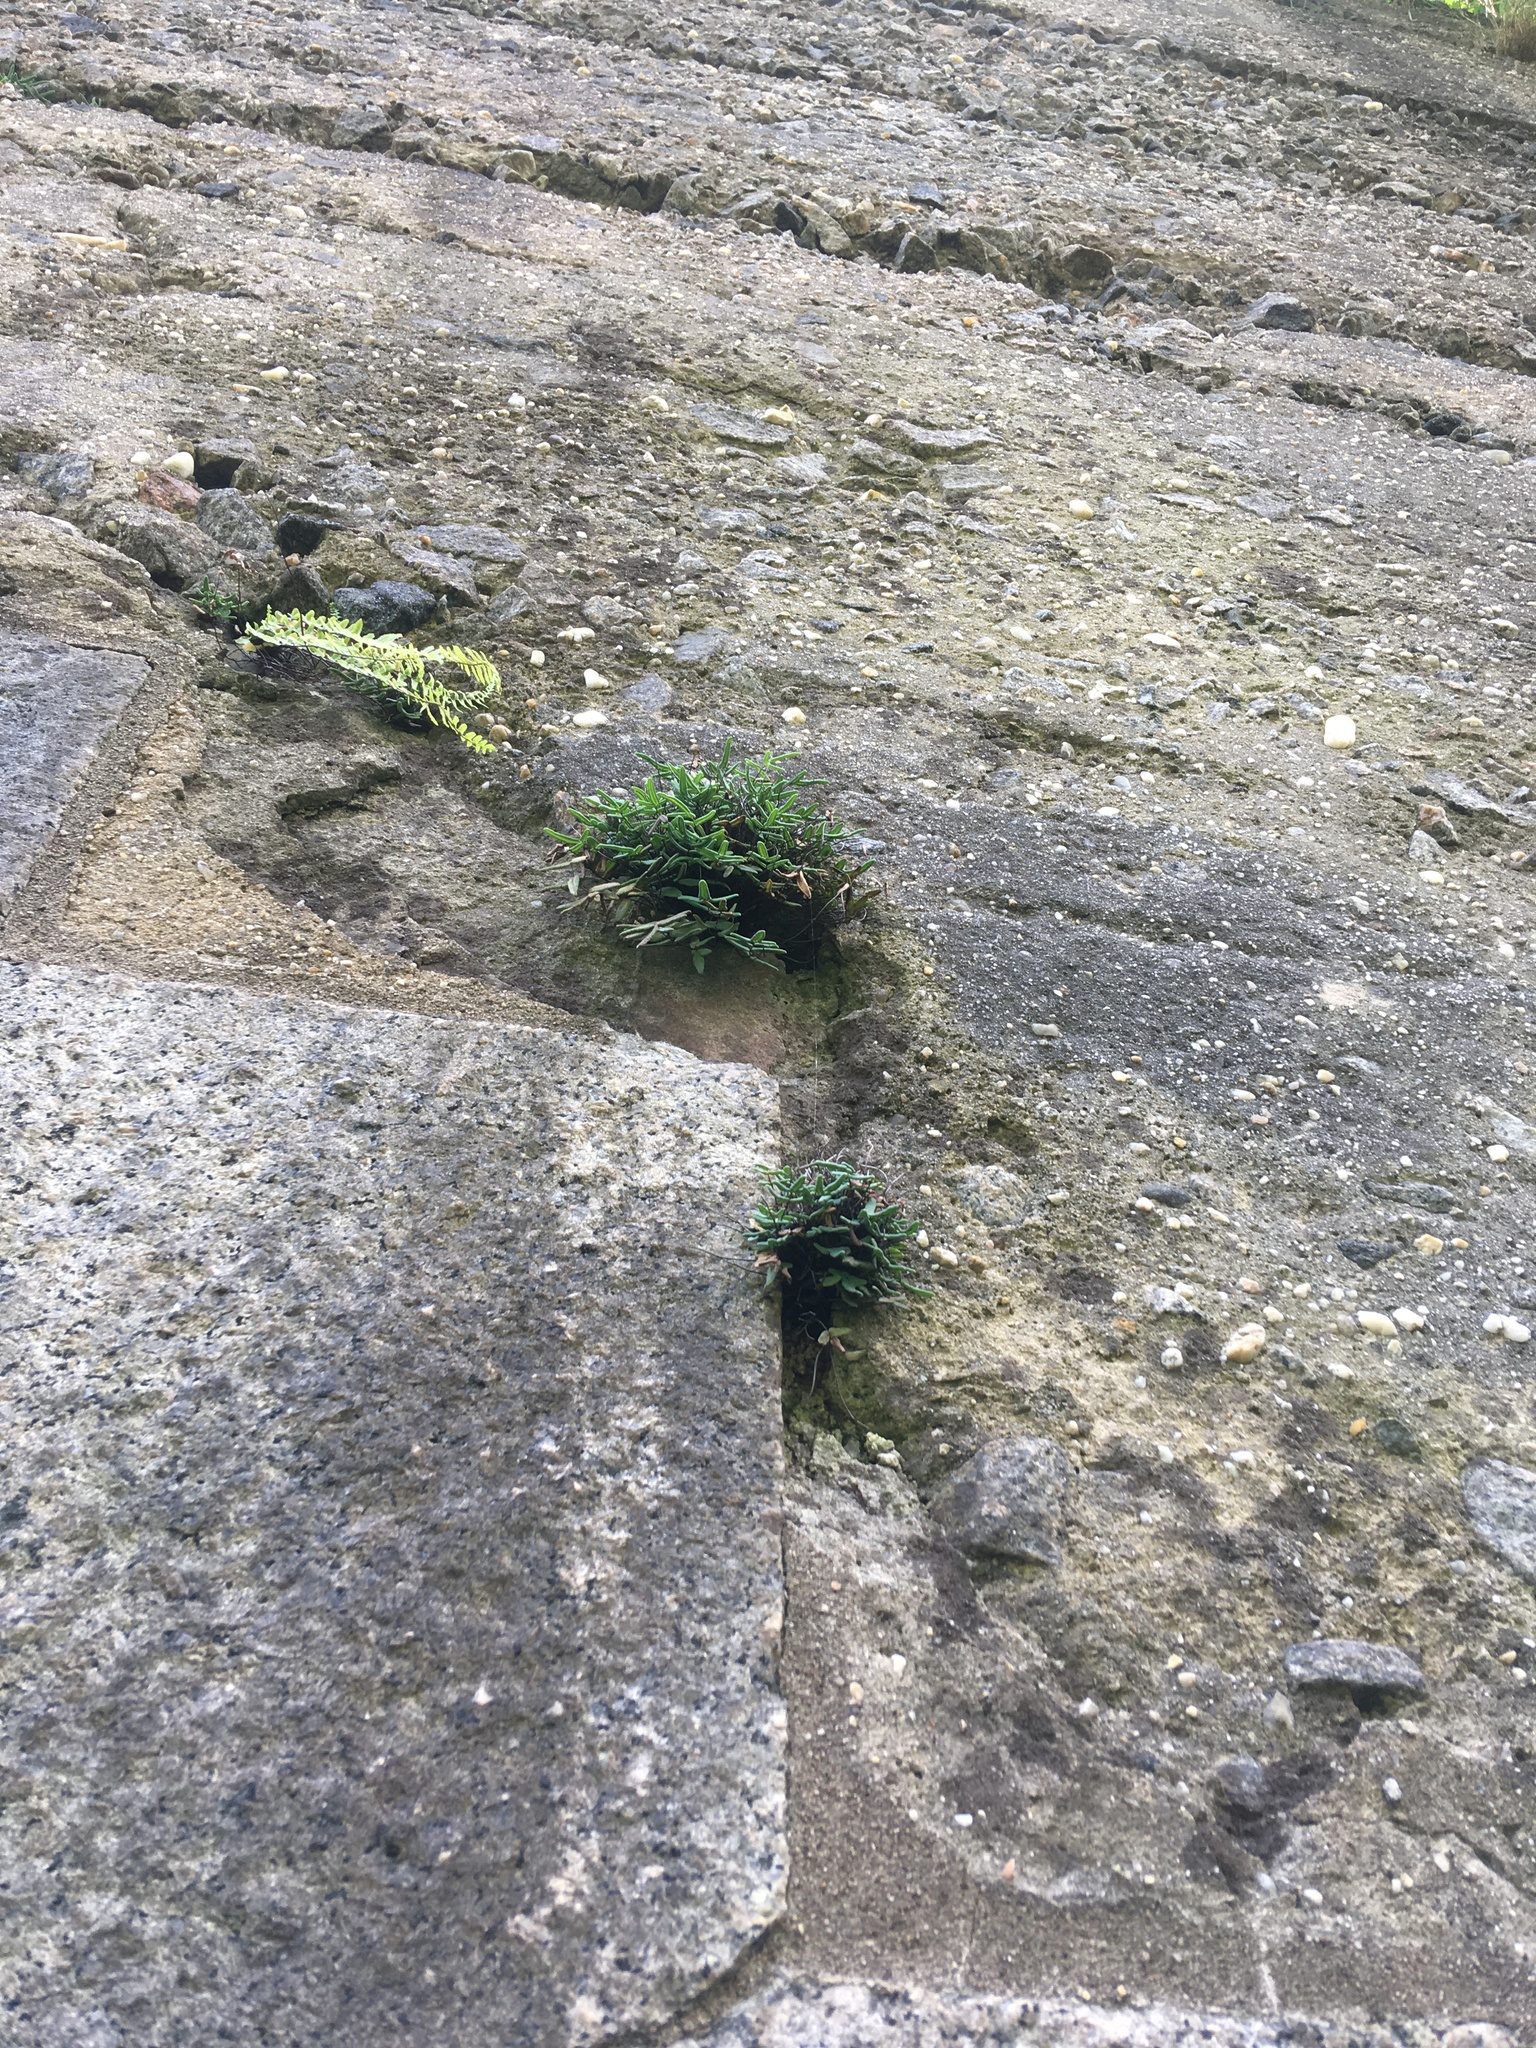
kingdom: Plantae
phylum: Tracheophyta
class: Polypodiopsida
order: Polypodiales
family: Pteridaceae
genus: Pellaea
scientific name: Pellaea glabella
